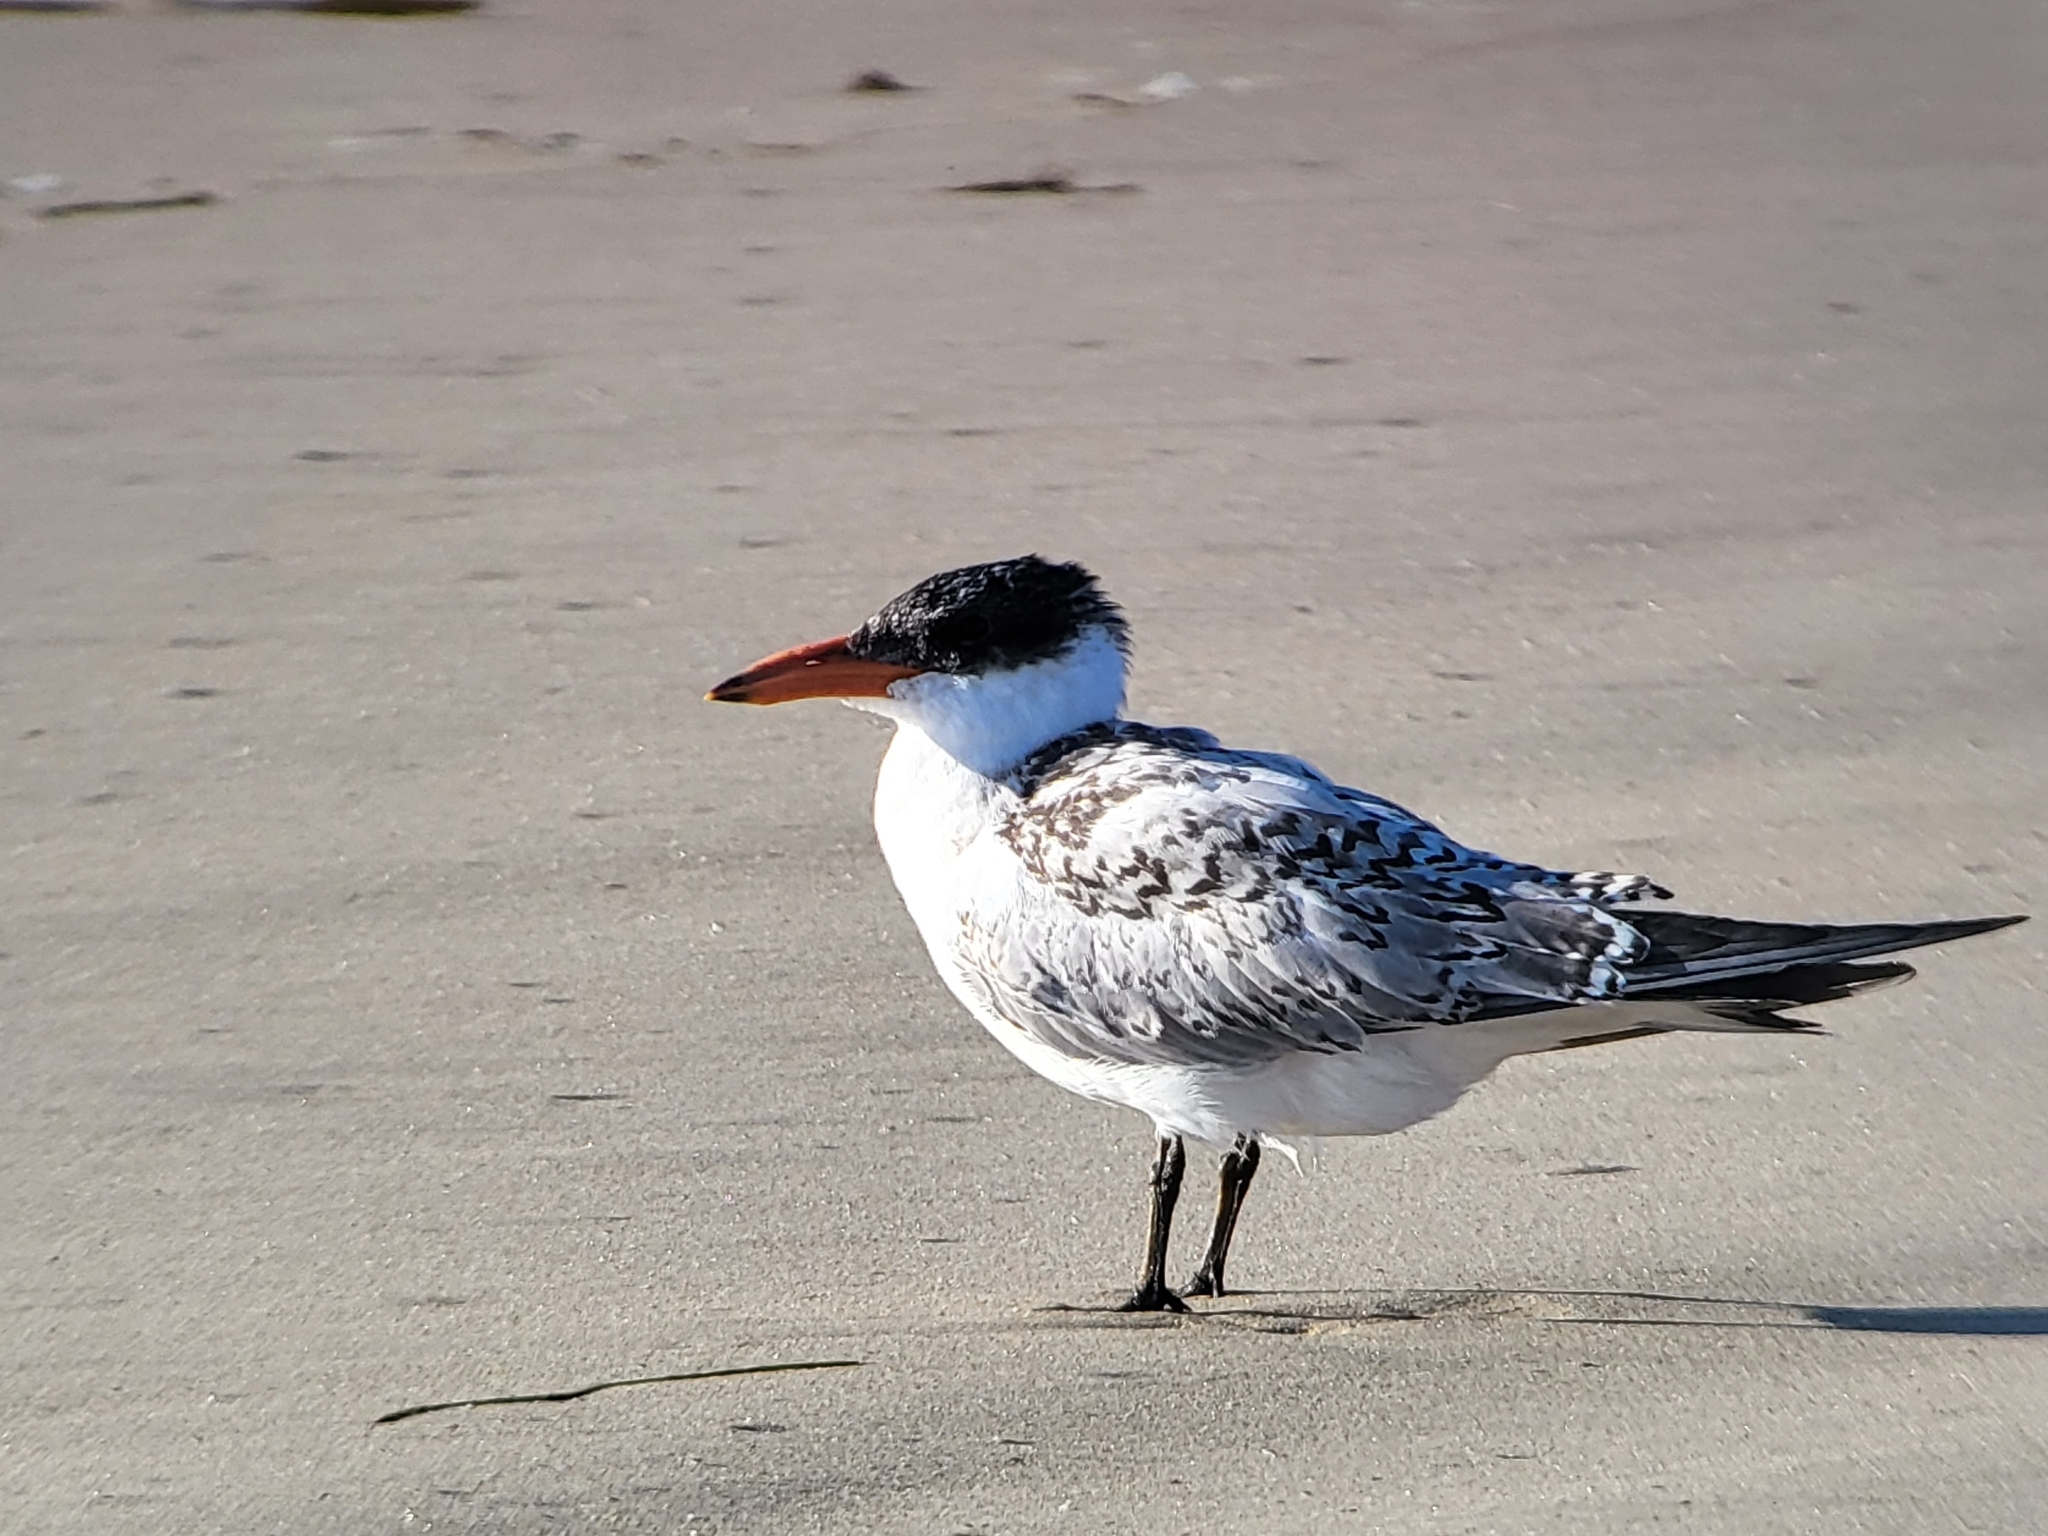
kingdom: Animalia
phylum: Chordata
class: Aves
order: Charadriiformes
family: Laridae
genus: Hydroprogne
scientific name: Hydroprogne caspia
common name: Caspian tern
